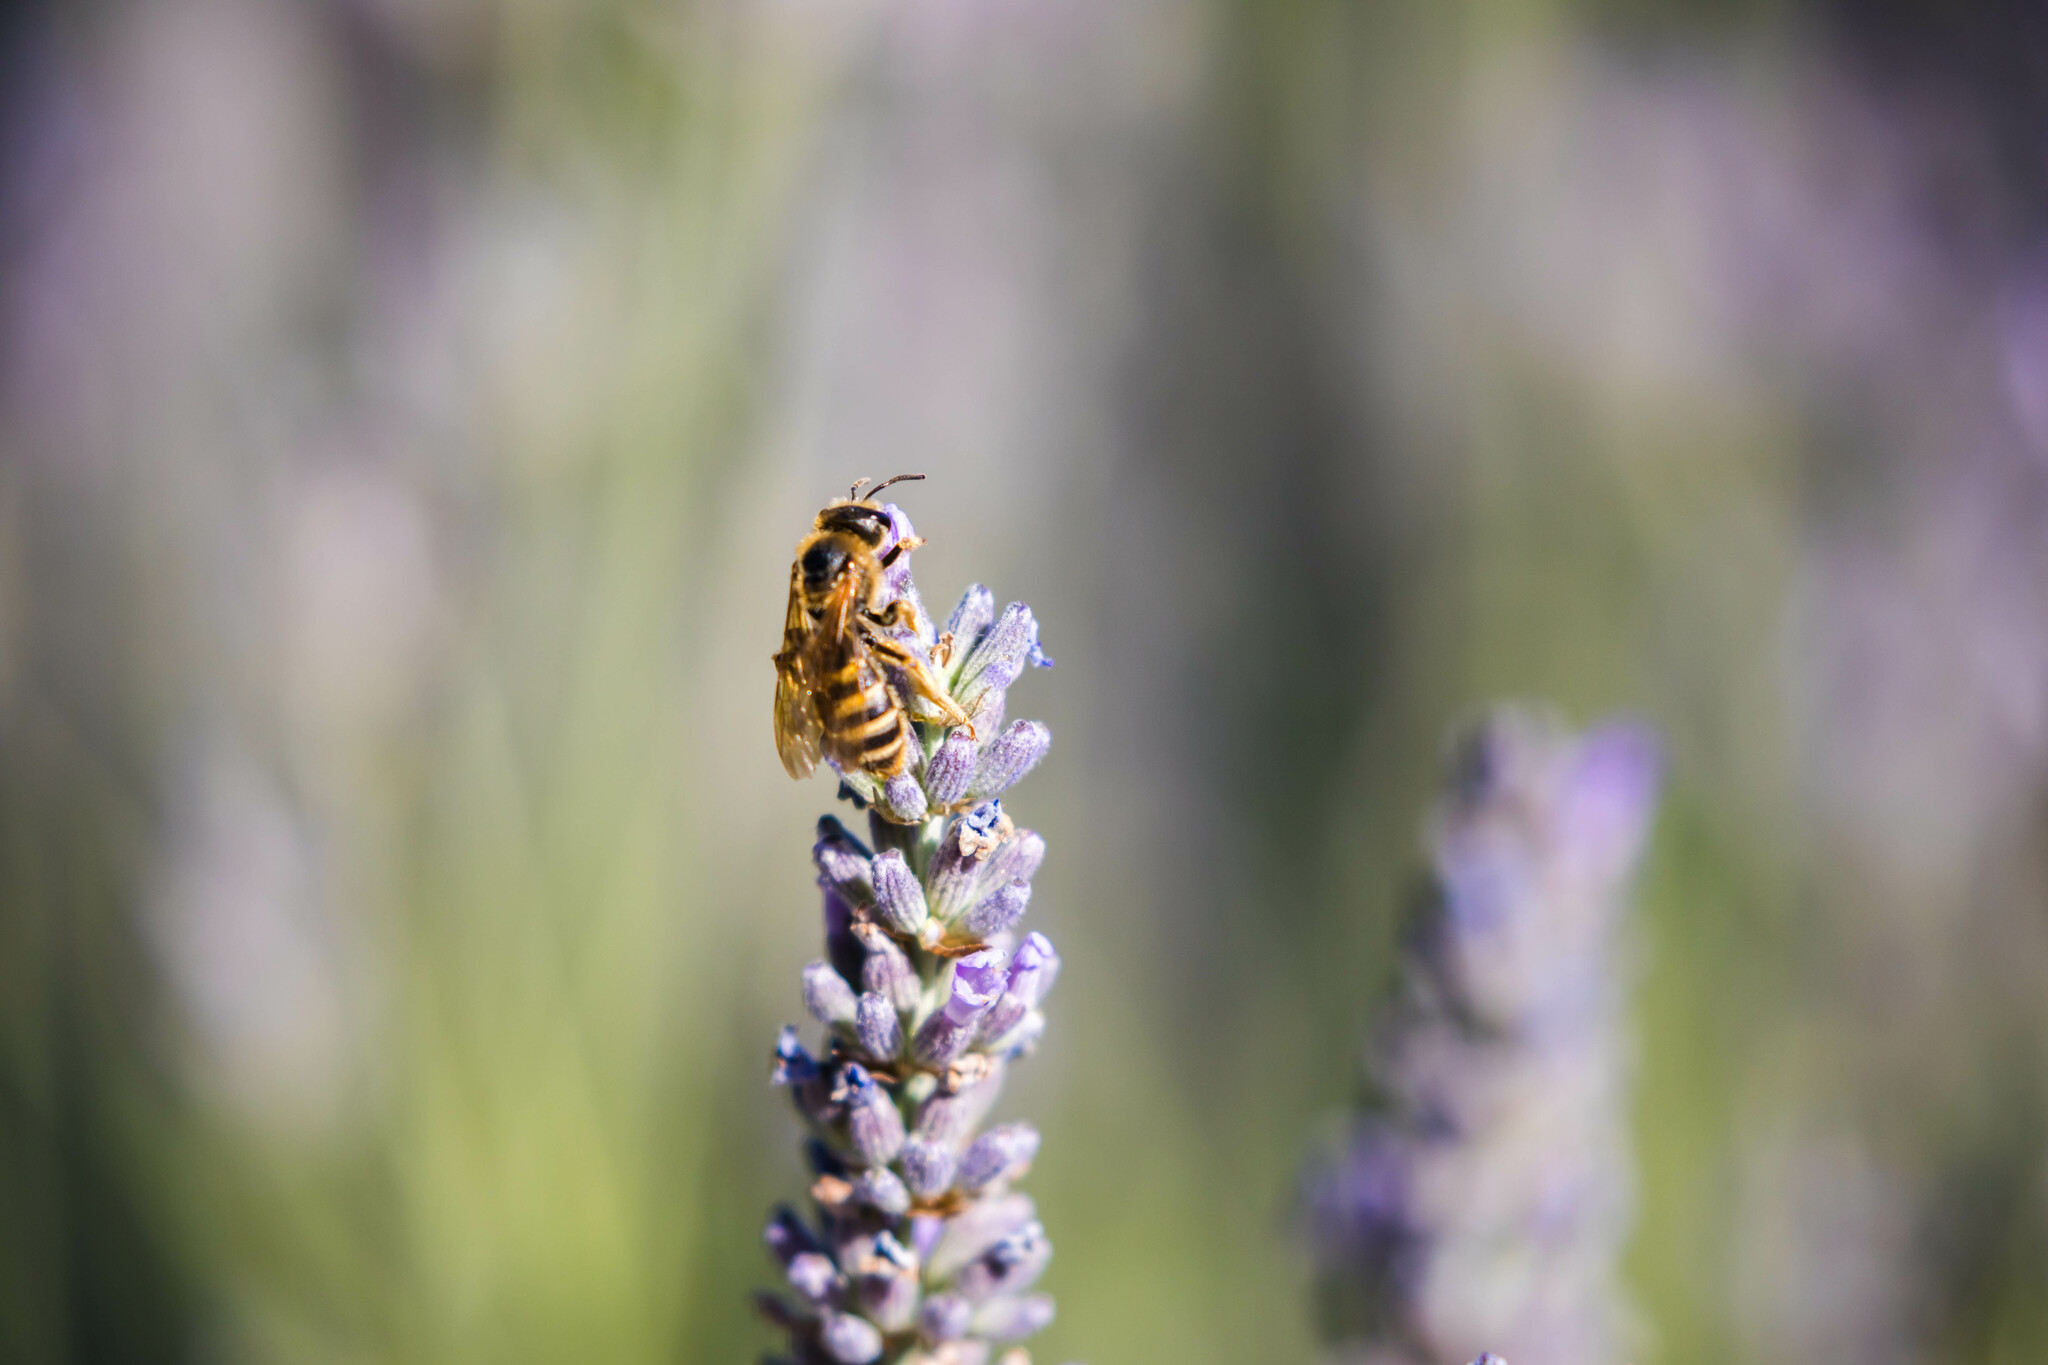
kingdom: Animalia
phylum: Arthropoda
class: Insecta
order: Hymenoptera
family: Halictidae
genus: Halictus
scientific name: Halictus scabiosae
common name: Great banded furrow bee
